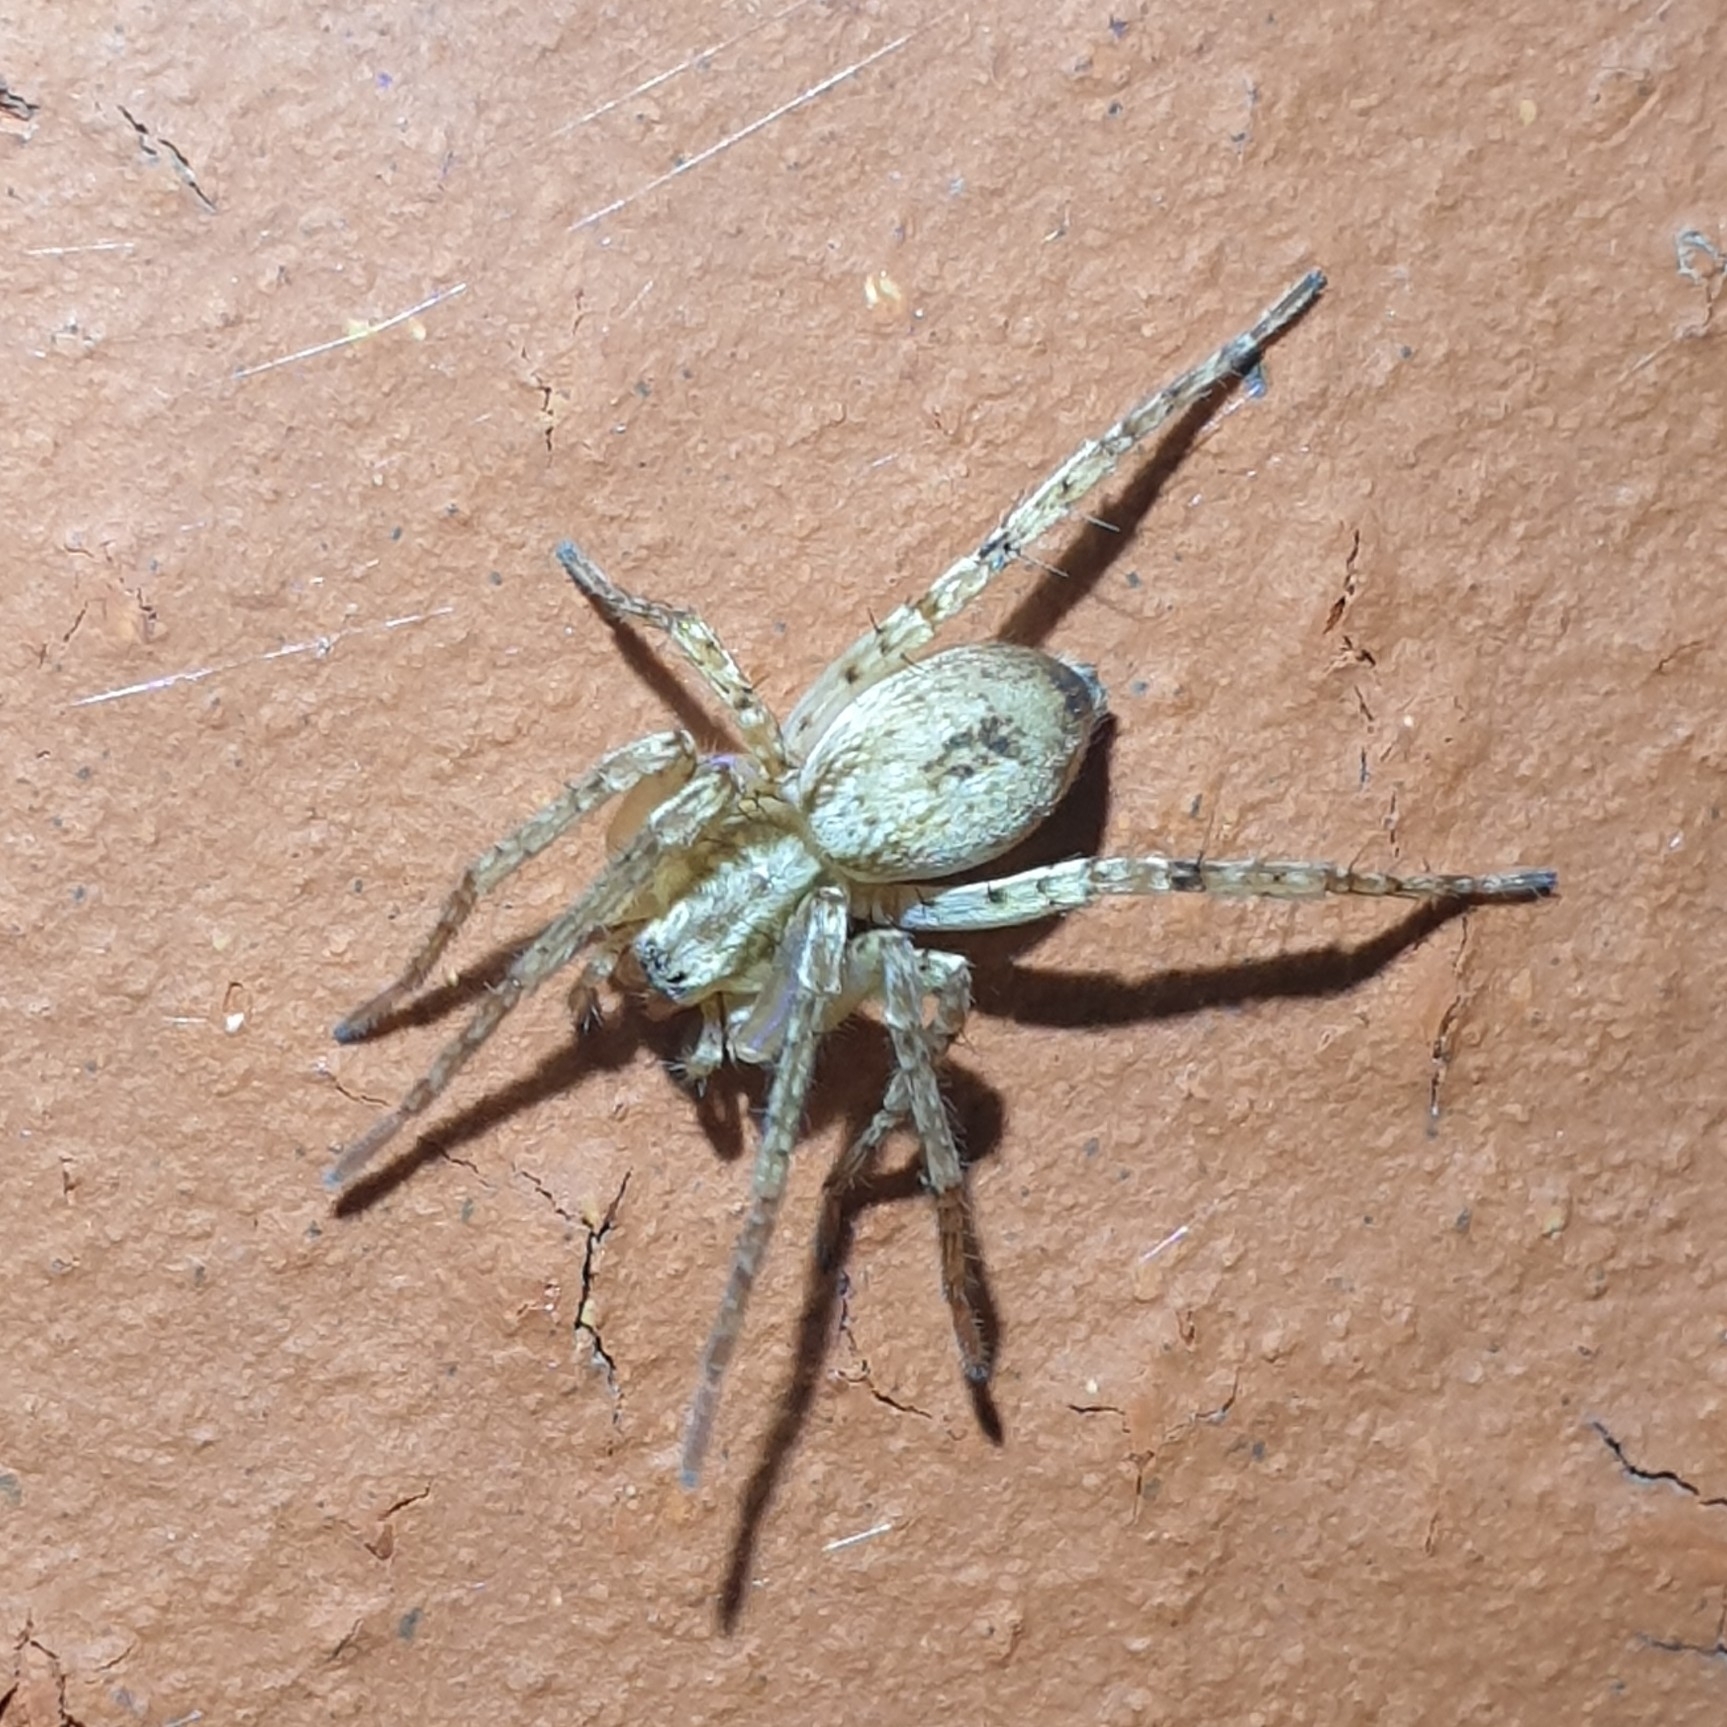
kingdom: Animalia
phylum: Arthropoda
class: Arachnida
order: Araneae
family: Anyphaenidae
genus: Anyphaena
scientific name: Anyphaena accentuata
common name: Buzzing spider
